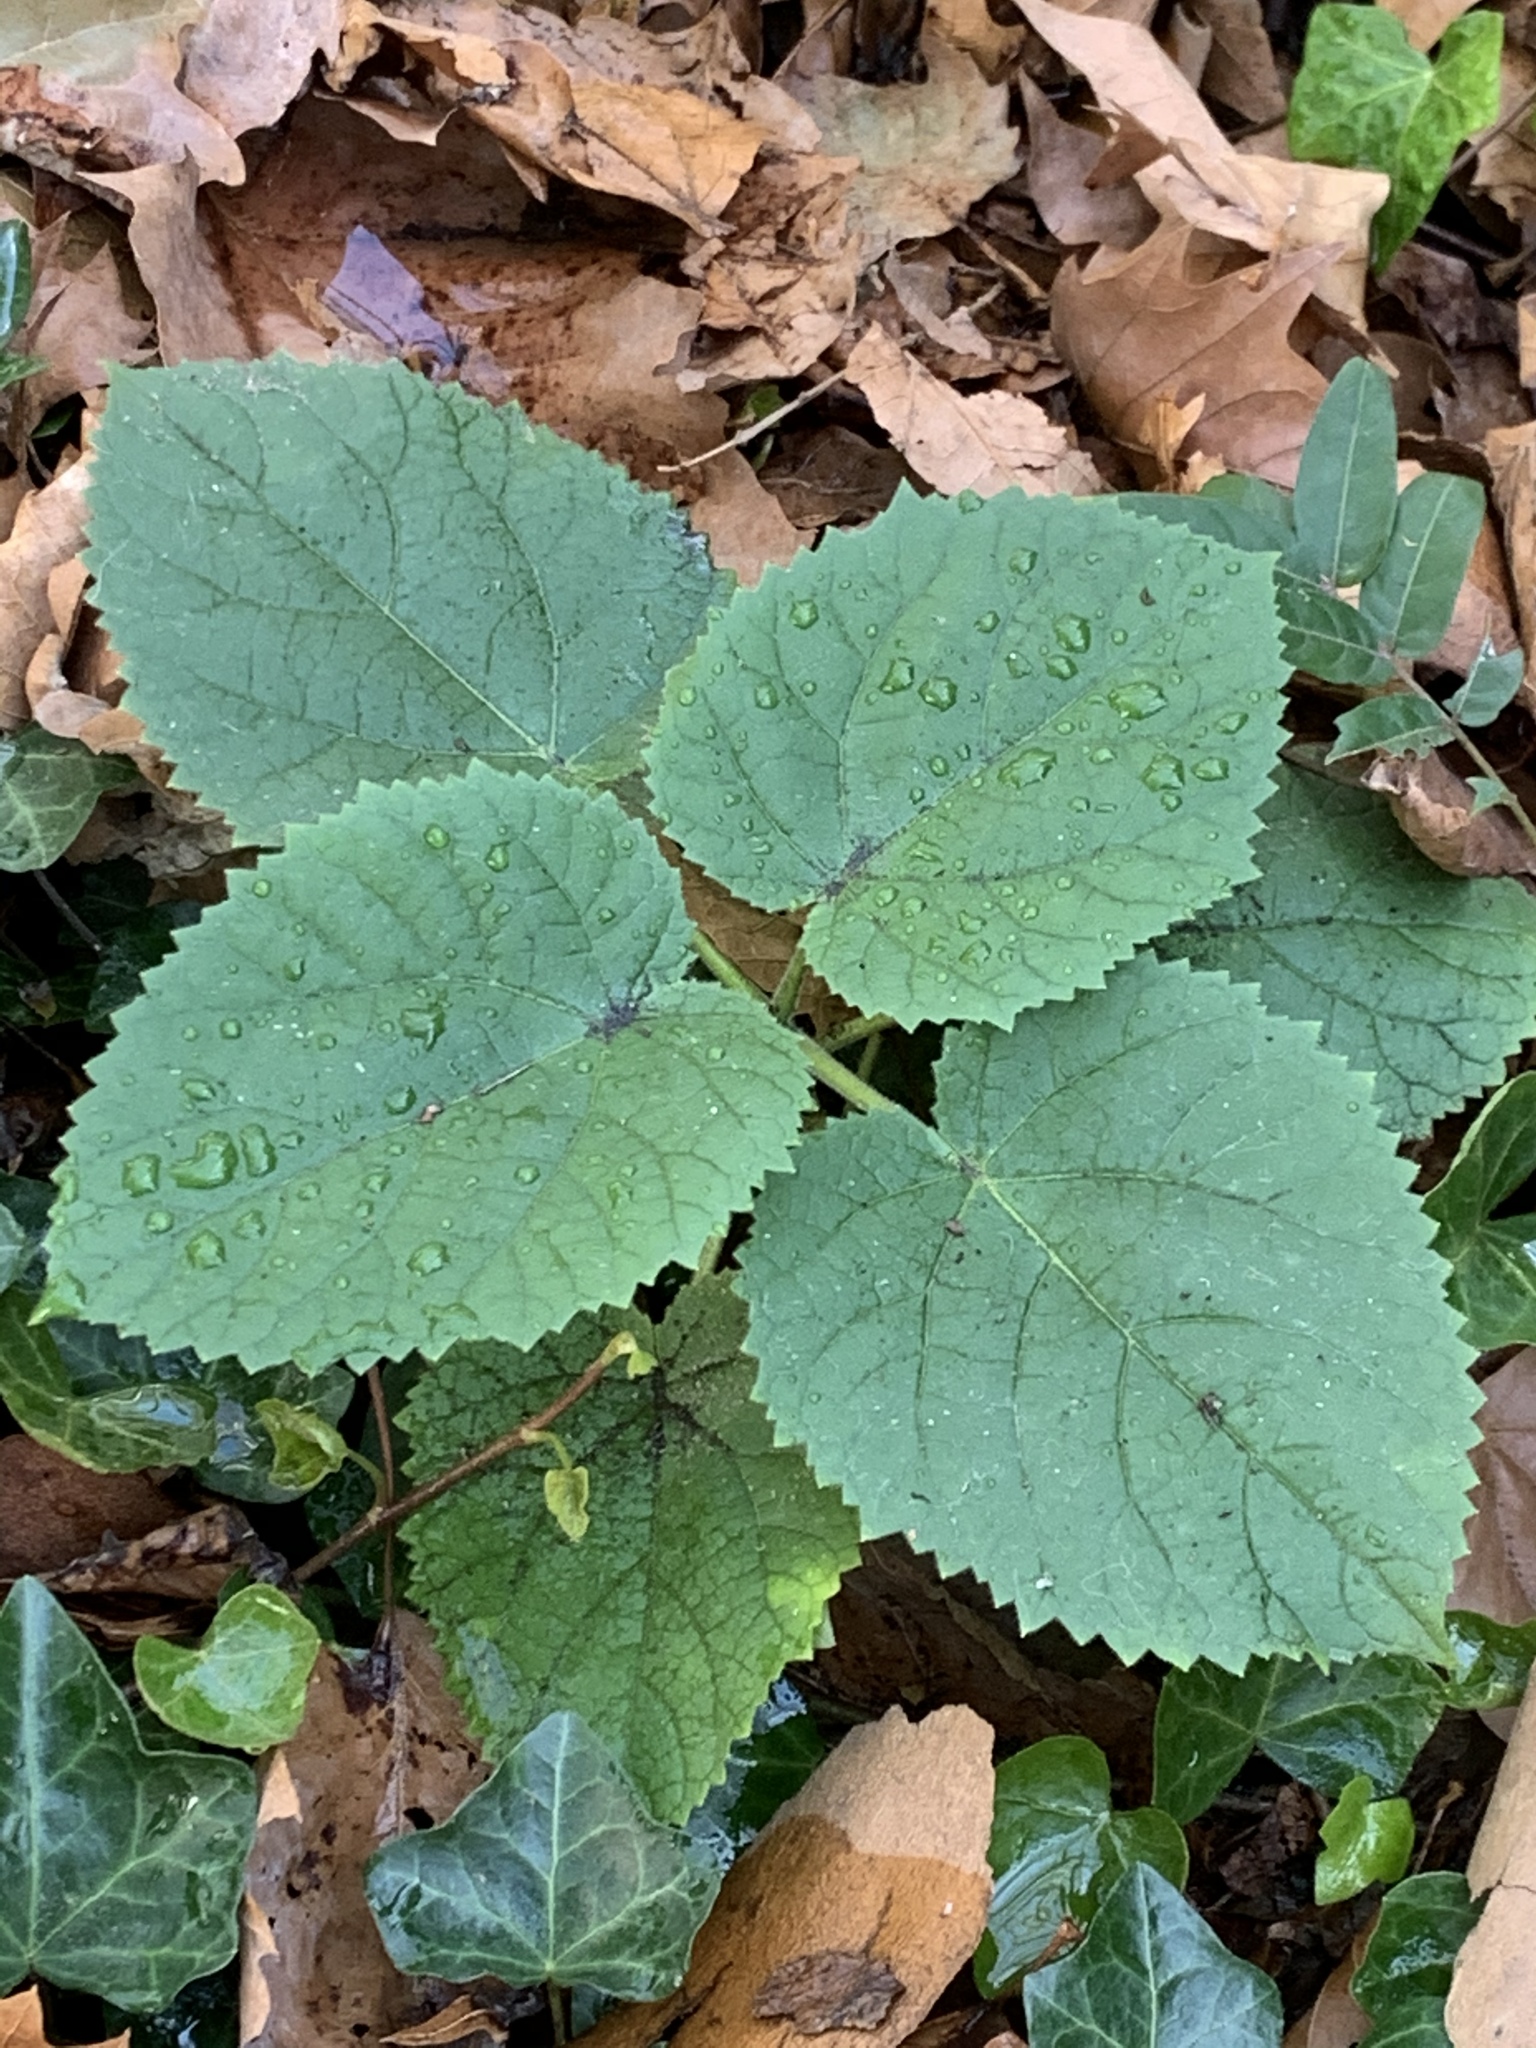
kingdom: Plantae
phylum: Tracheophyta
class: Magnoliopsida
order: Lamiales
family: Paulowniaceae
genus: Paulownia
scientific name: Paulownia tomentosa
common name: Foxglove-tree
